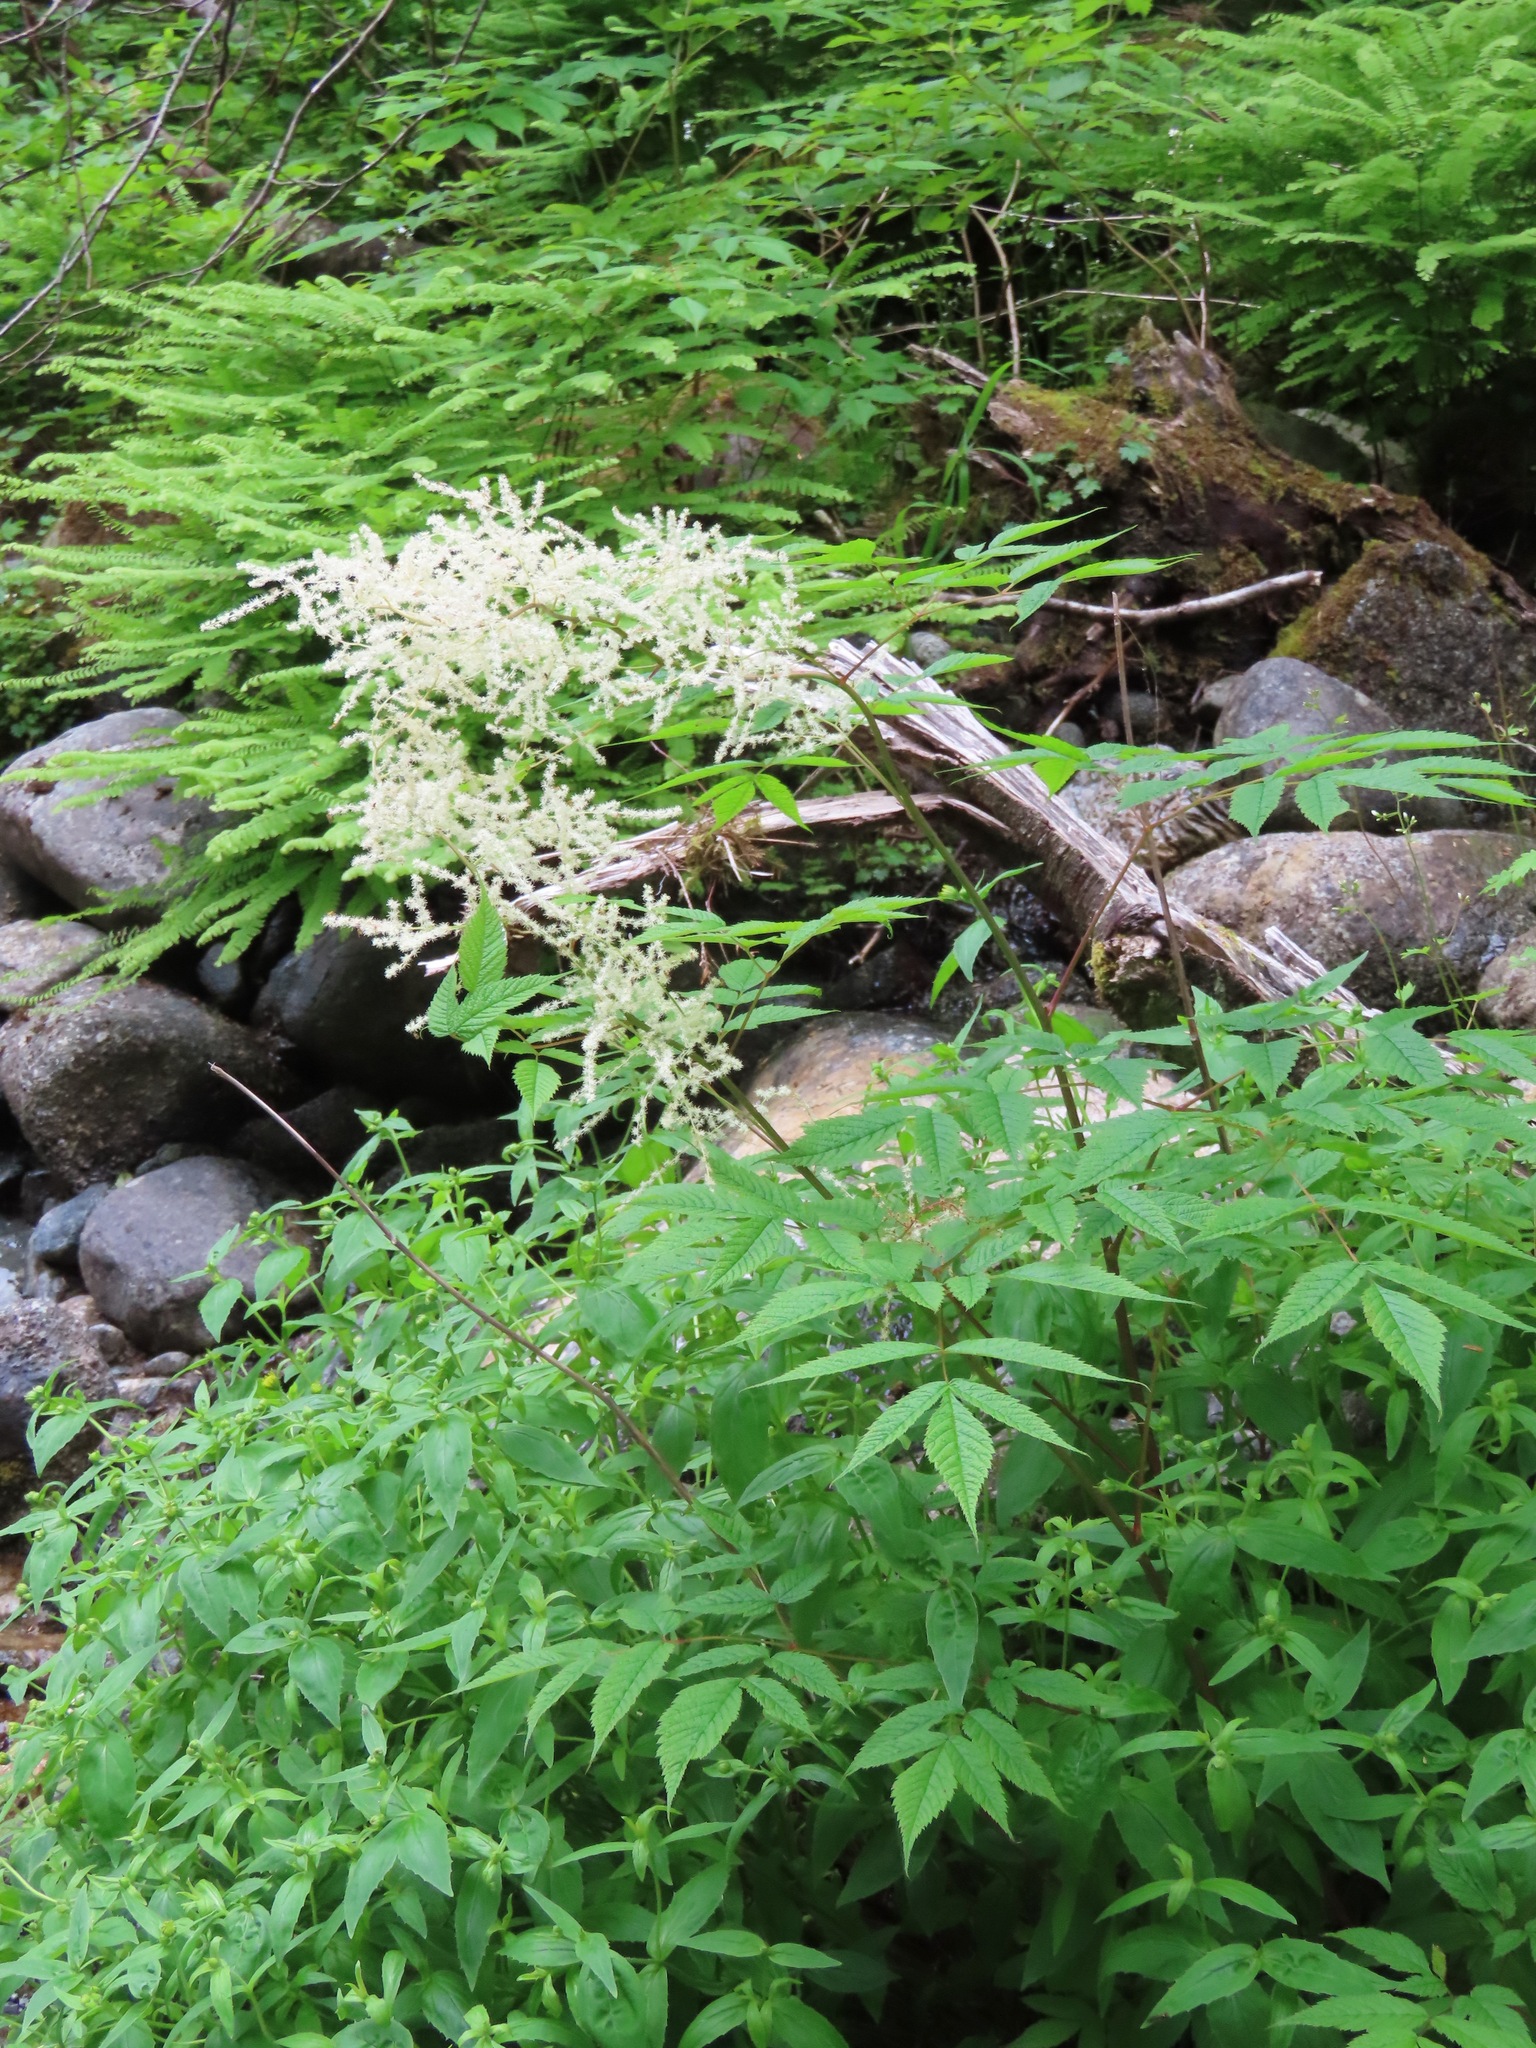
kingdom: Plantae
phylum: Tracheophyta
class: Magnoliopsida
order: Rosales
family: Rosaceae
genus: Aruncus
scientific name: Aruncus dioicus
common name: Buck's-beard
